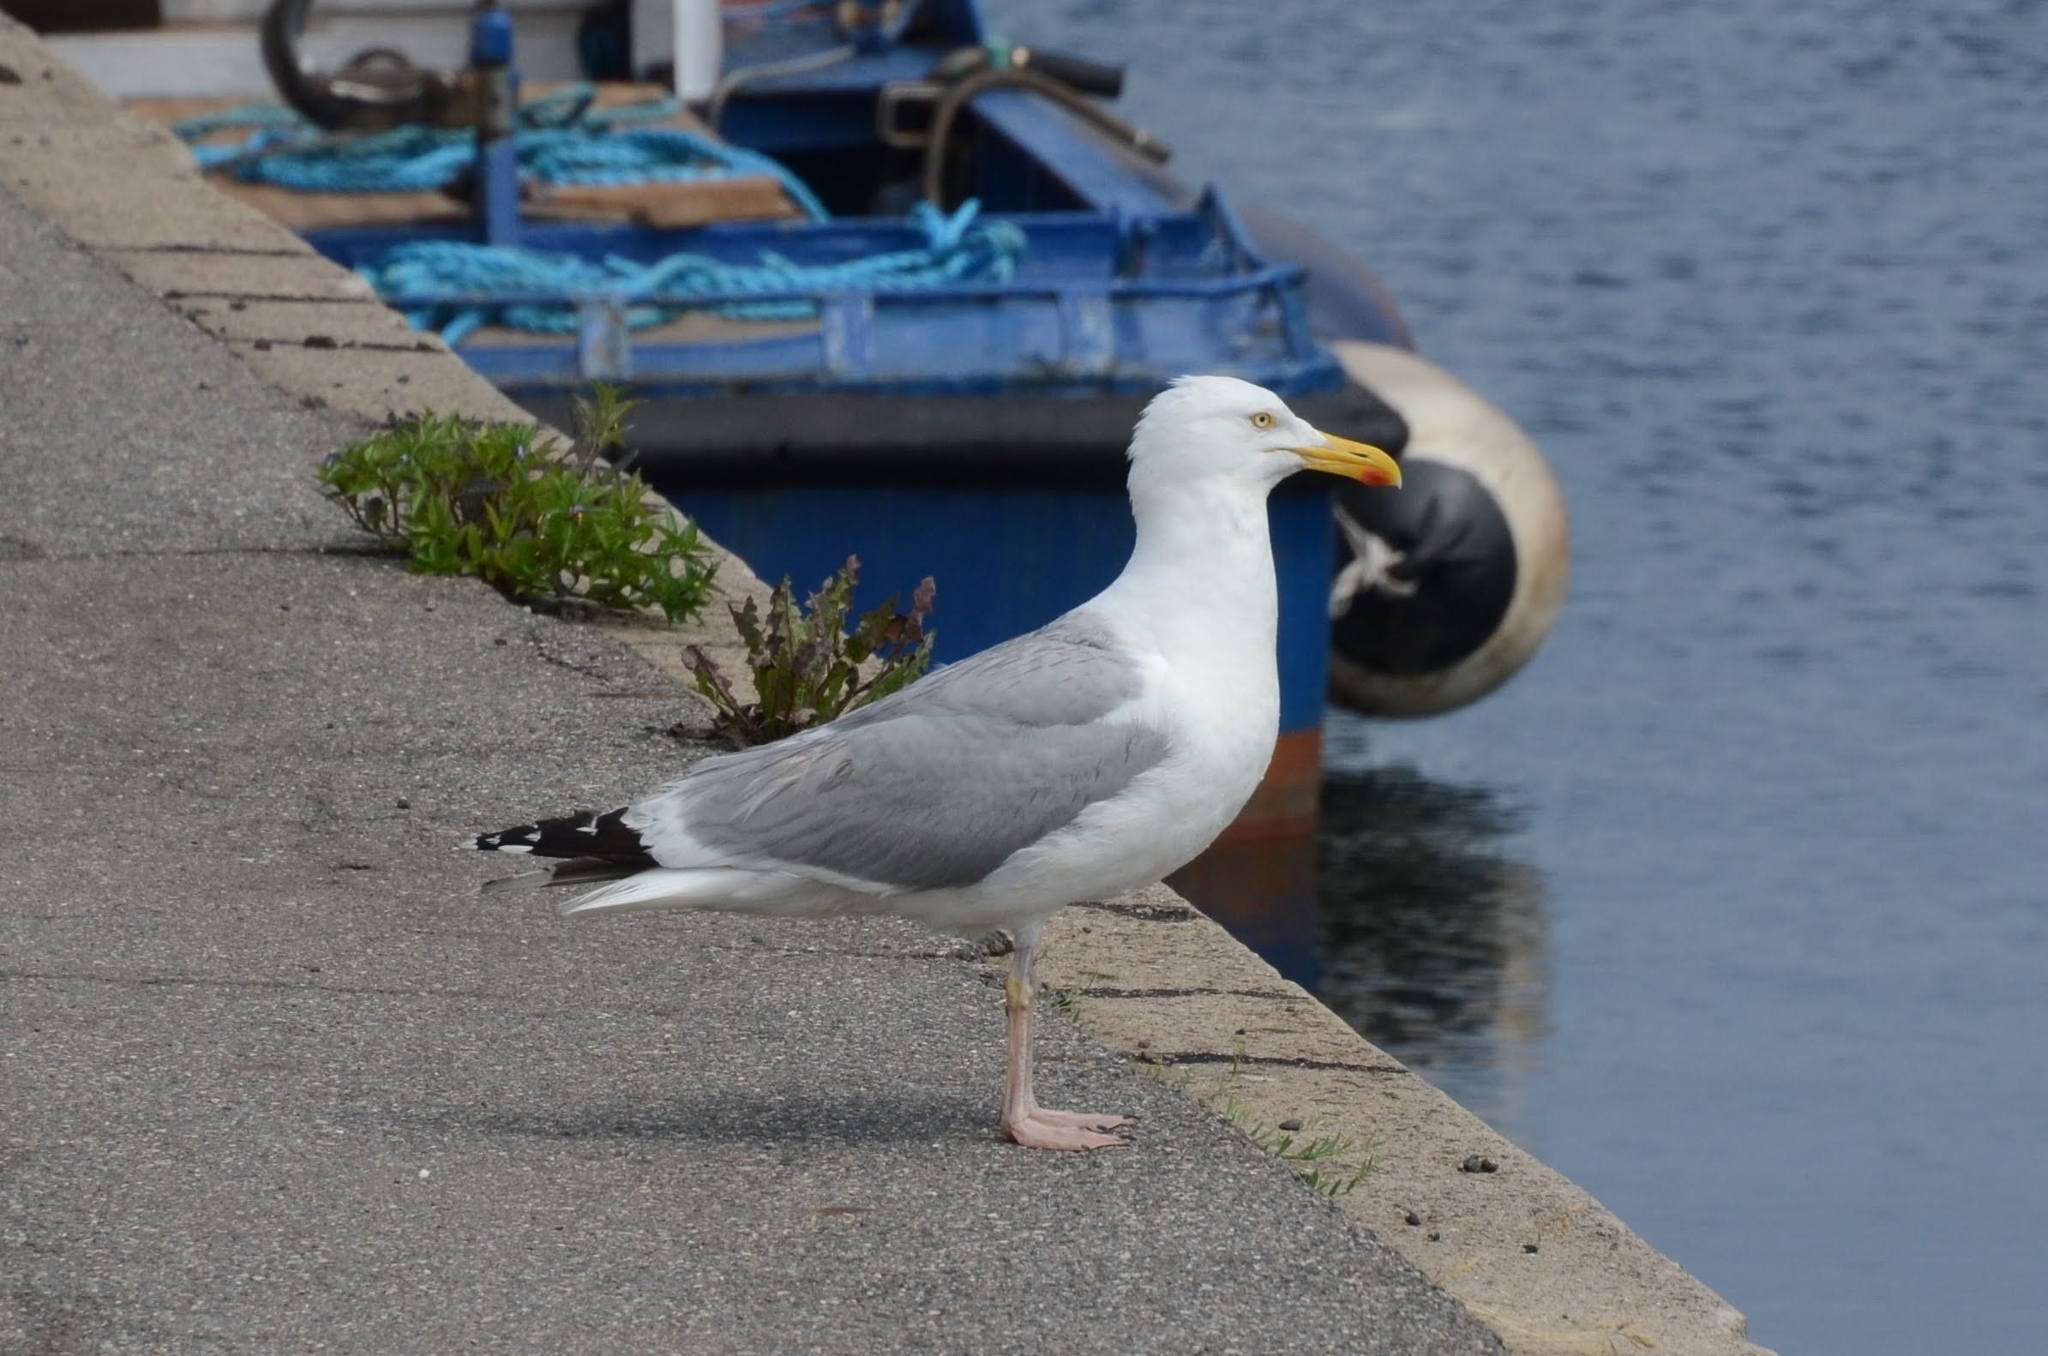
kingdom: Animalia
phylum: Chordata
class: Aves
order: Charadriiformes
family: Laridae
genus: Larus
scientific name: Larus argentatus
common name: Herring gull
